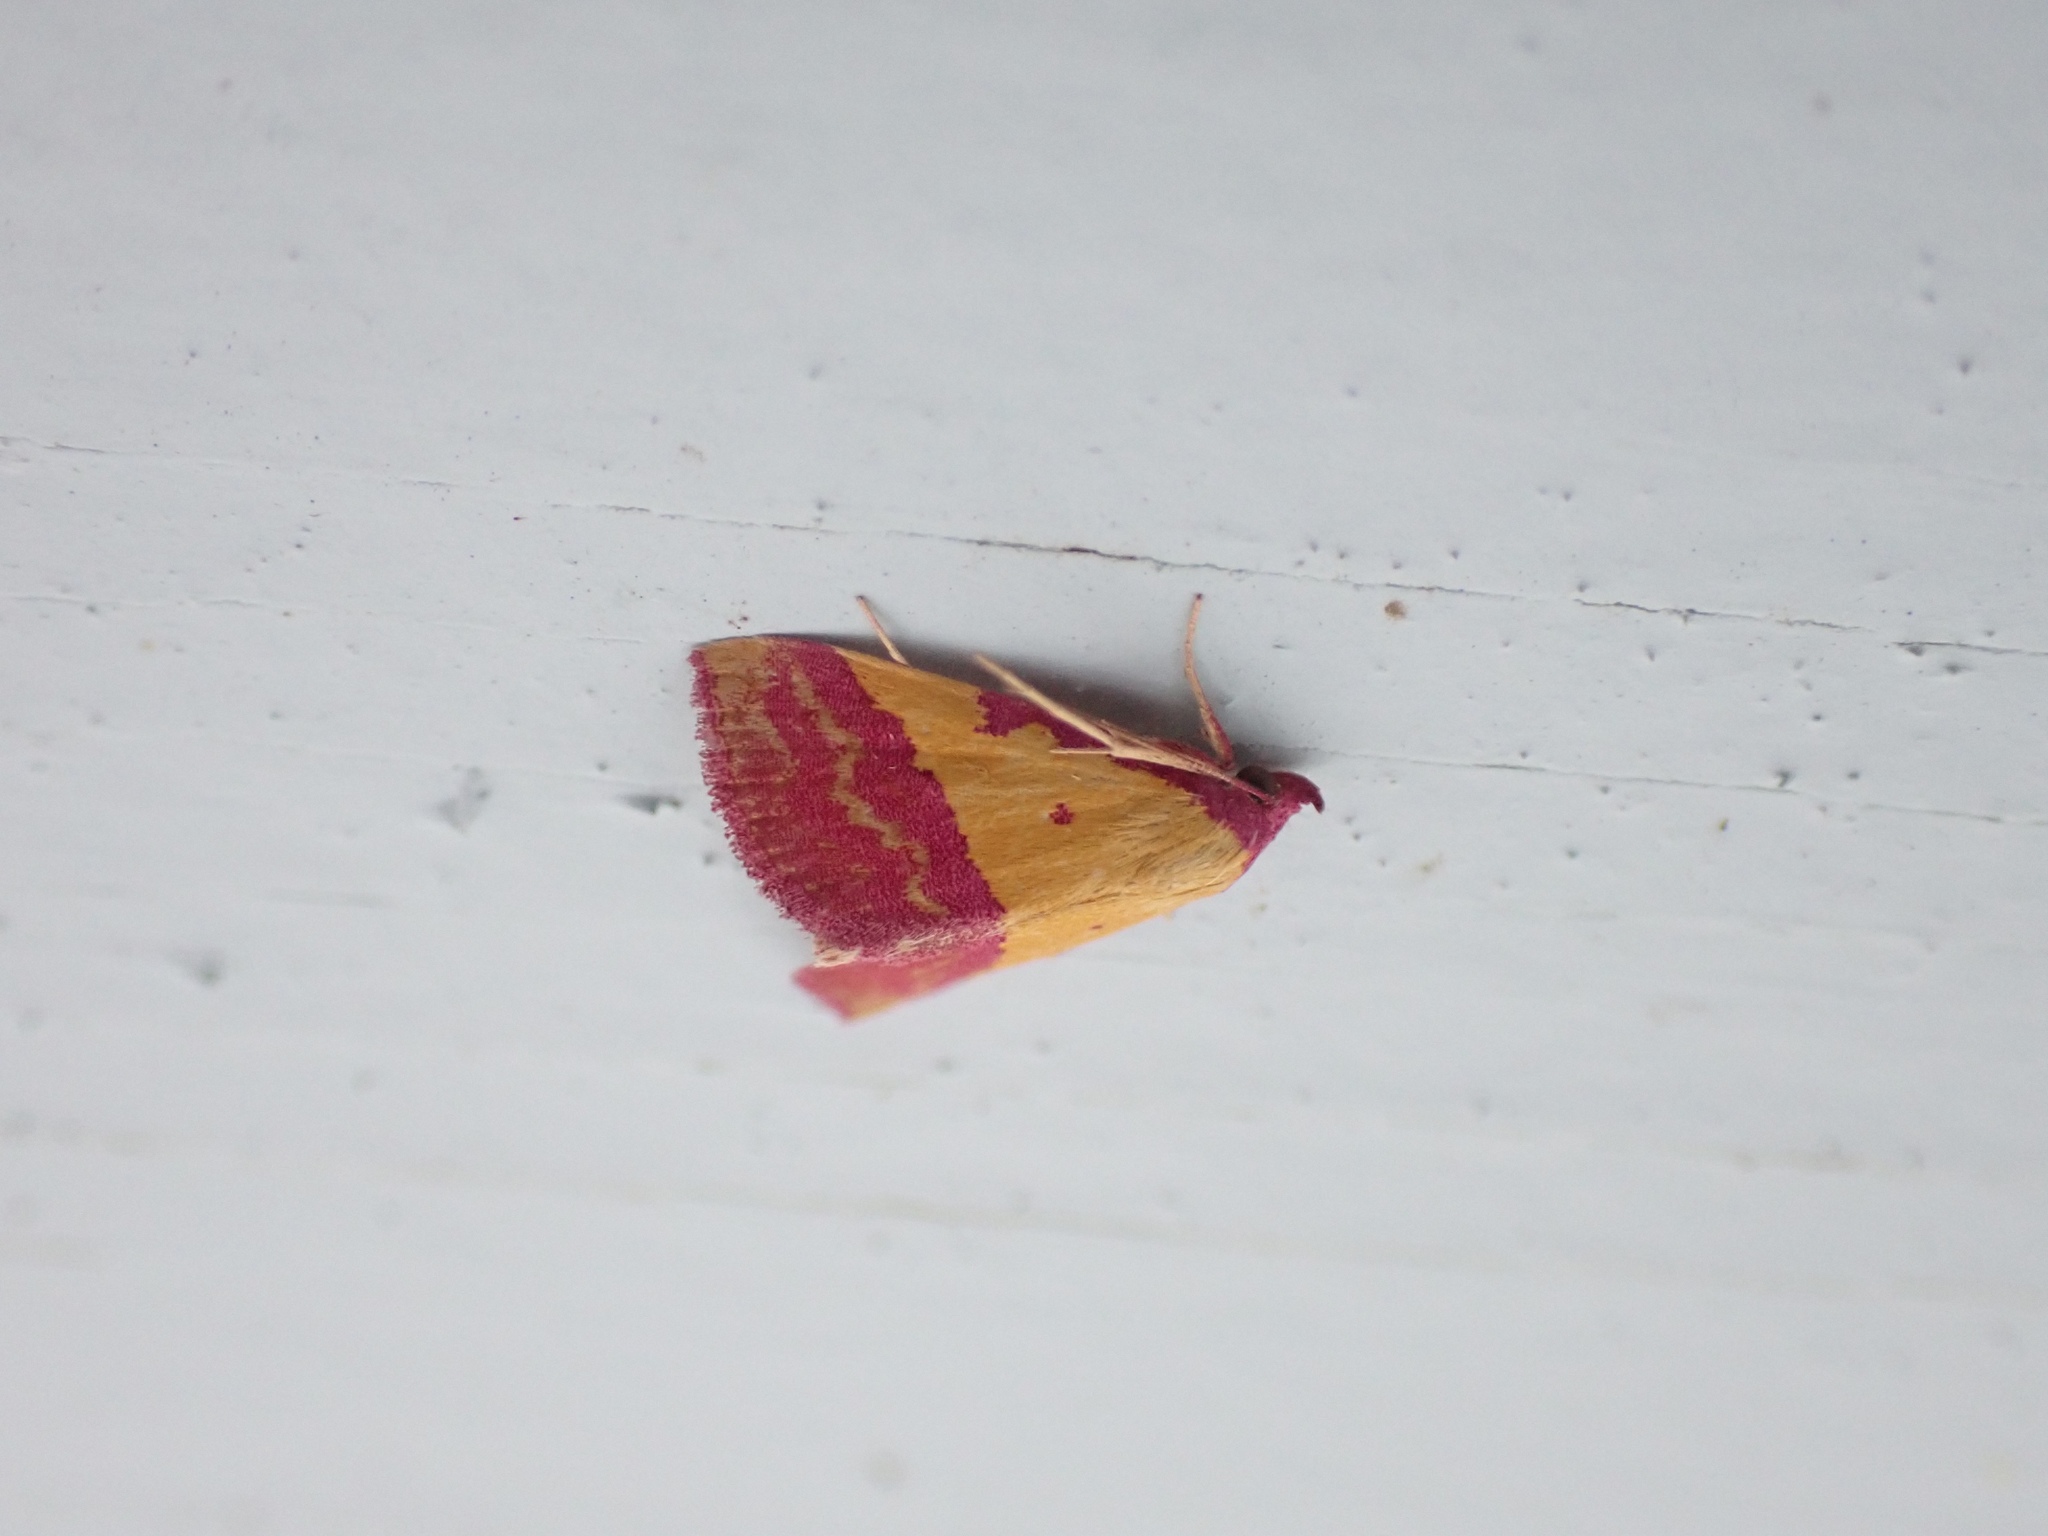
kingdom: Animalia
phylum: Arthropoda
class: Insecta
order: Lepidoptera
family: Erebidae
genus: Phytometra
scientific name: Phytometra rhodarialis
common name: Pink-bordered yellow
